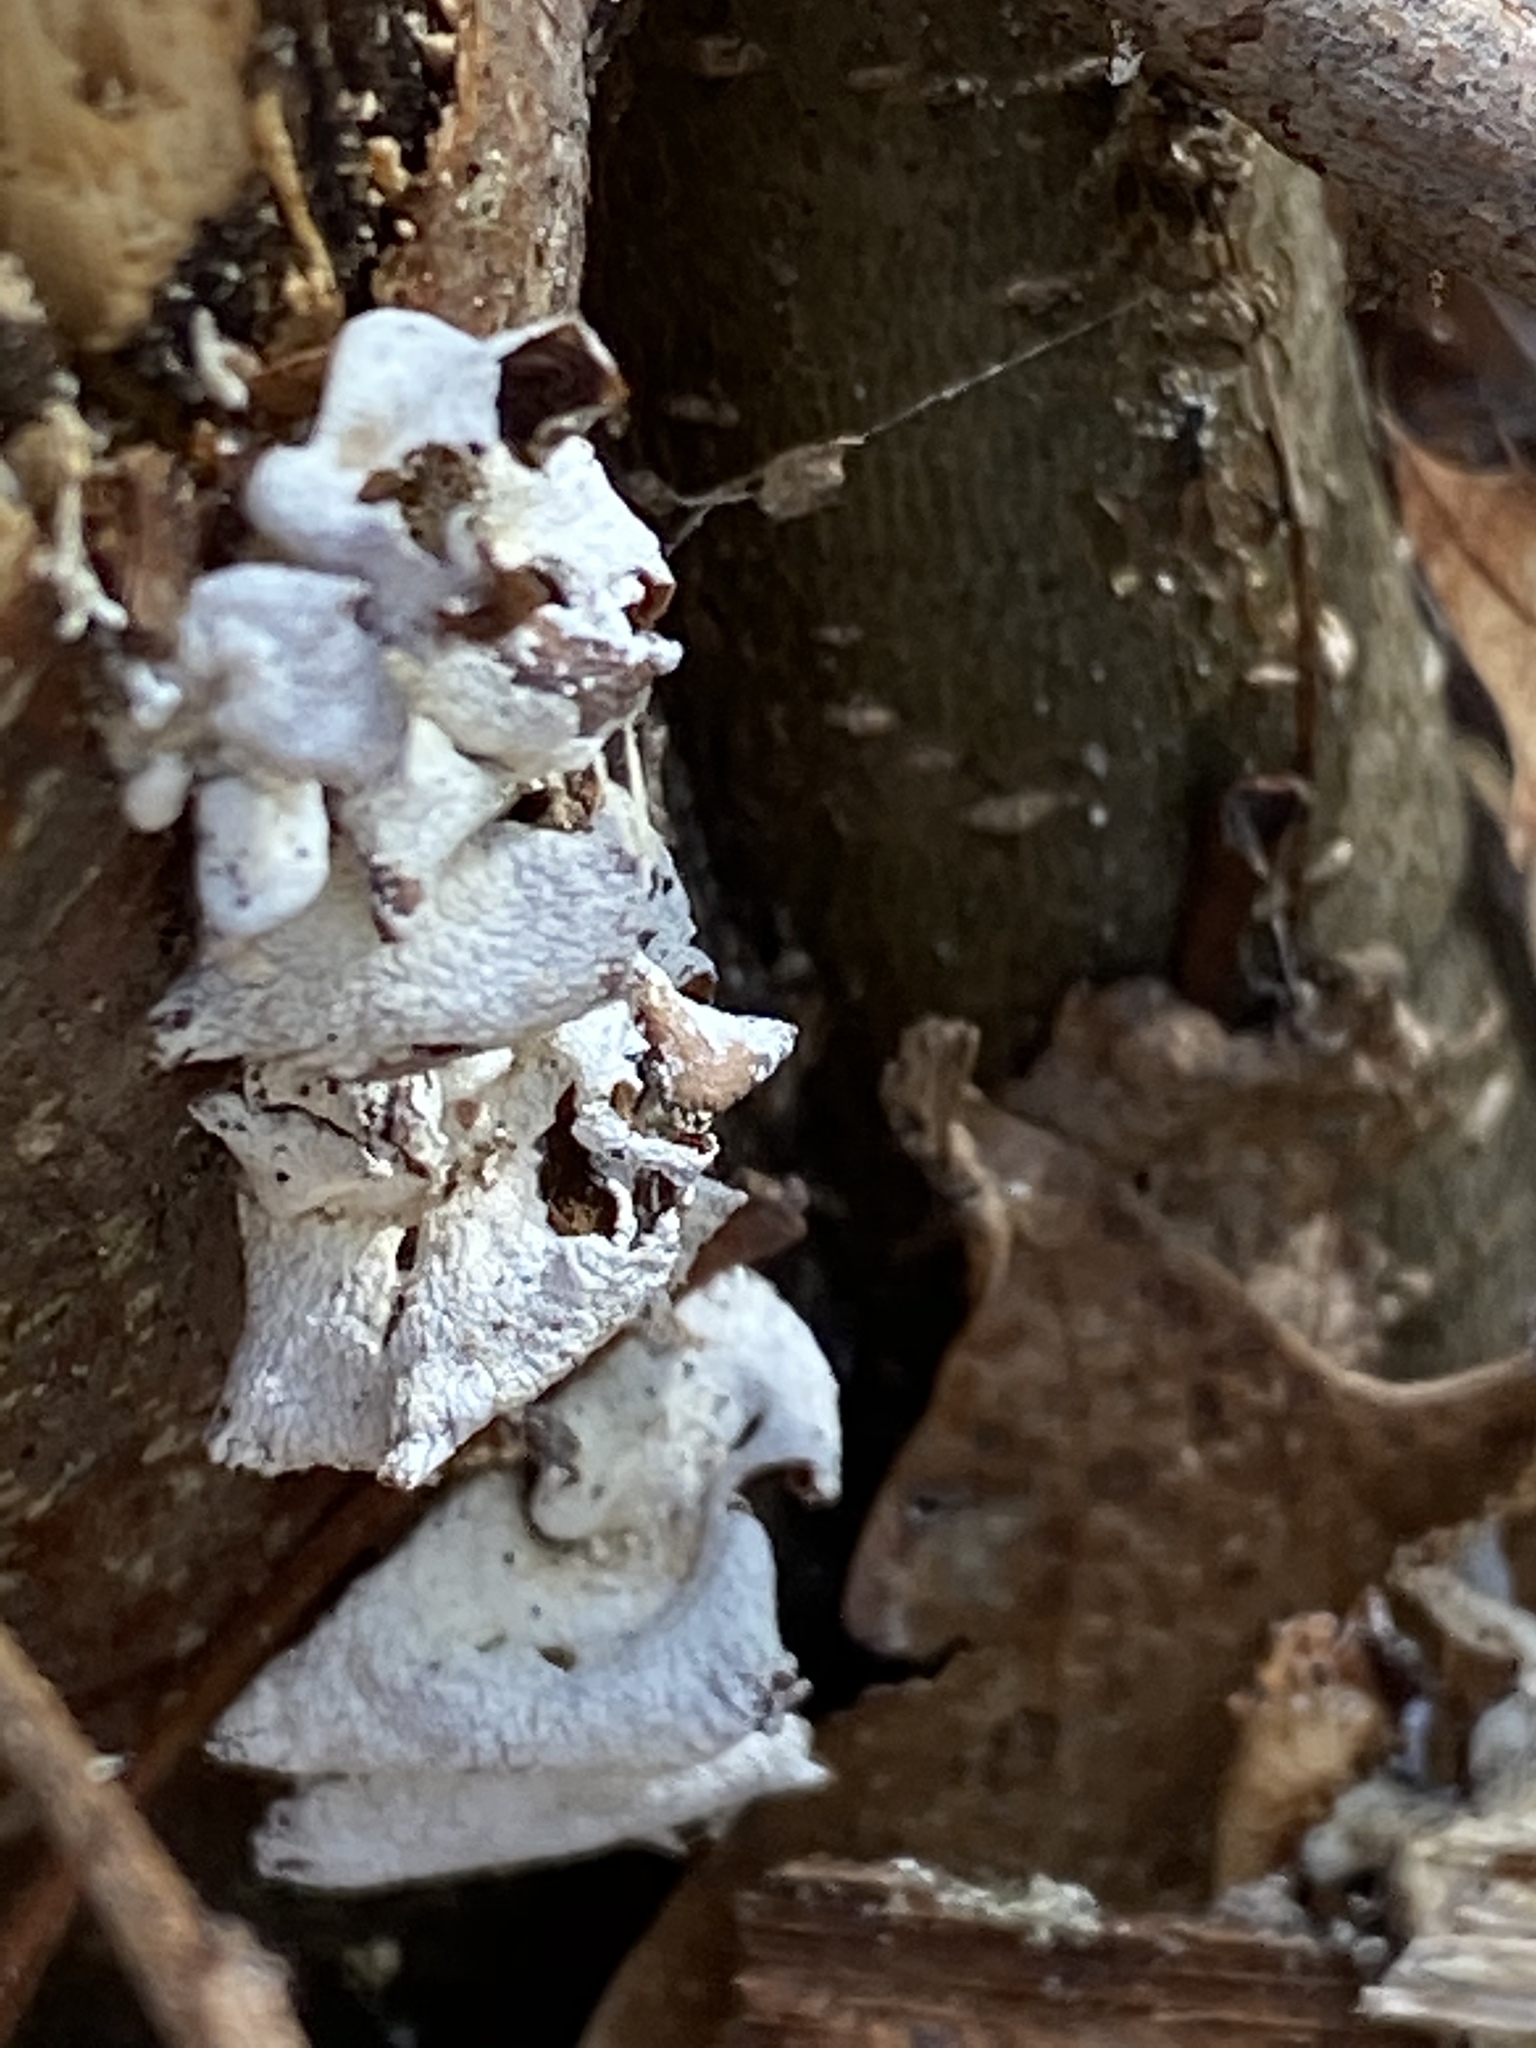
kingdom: Fungi
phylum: Basidiomycota
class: Agaricomycetes
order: Agaricales
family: Mycenaceae
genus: Panellus
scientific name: Panellus stipticus
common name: Bitter oysterling
